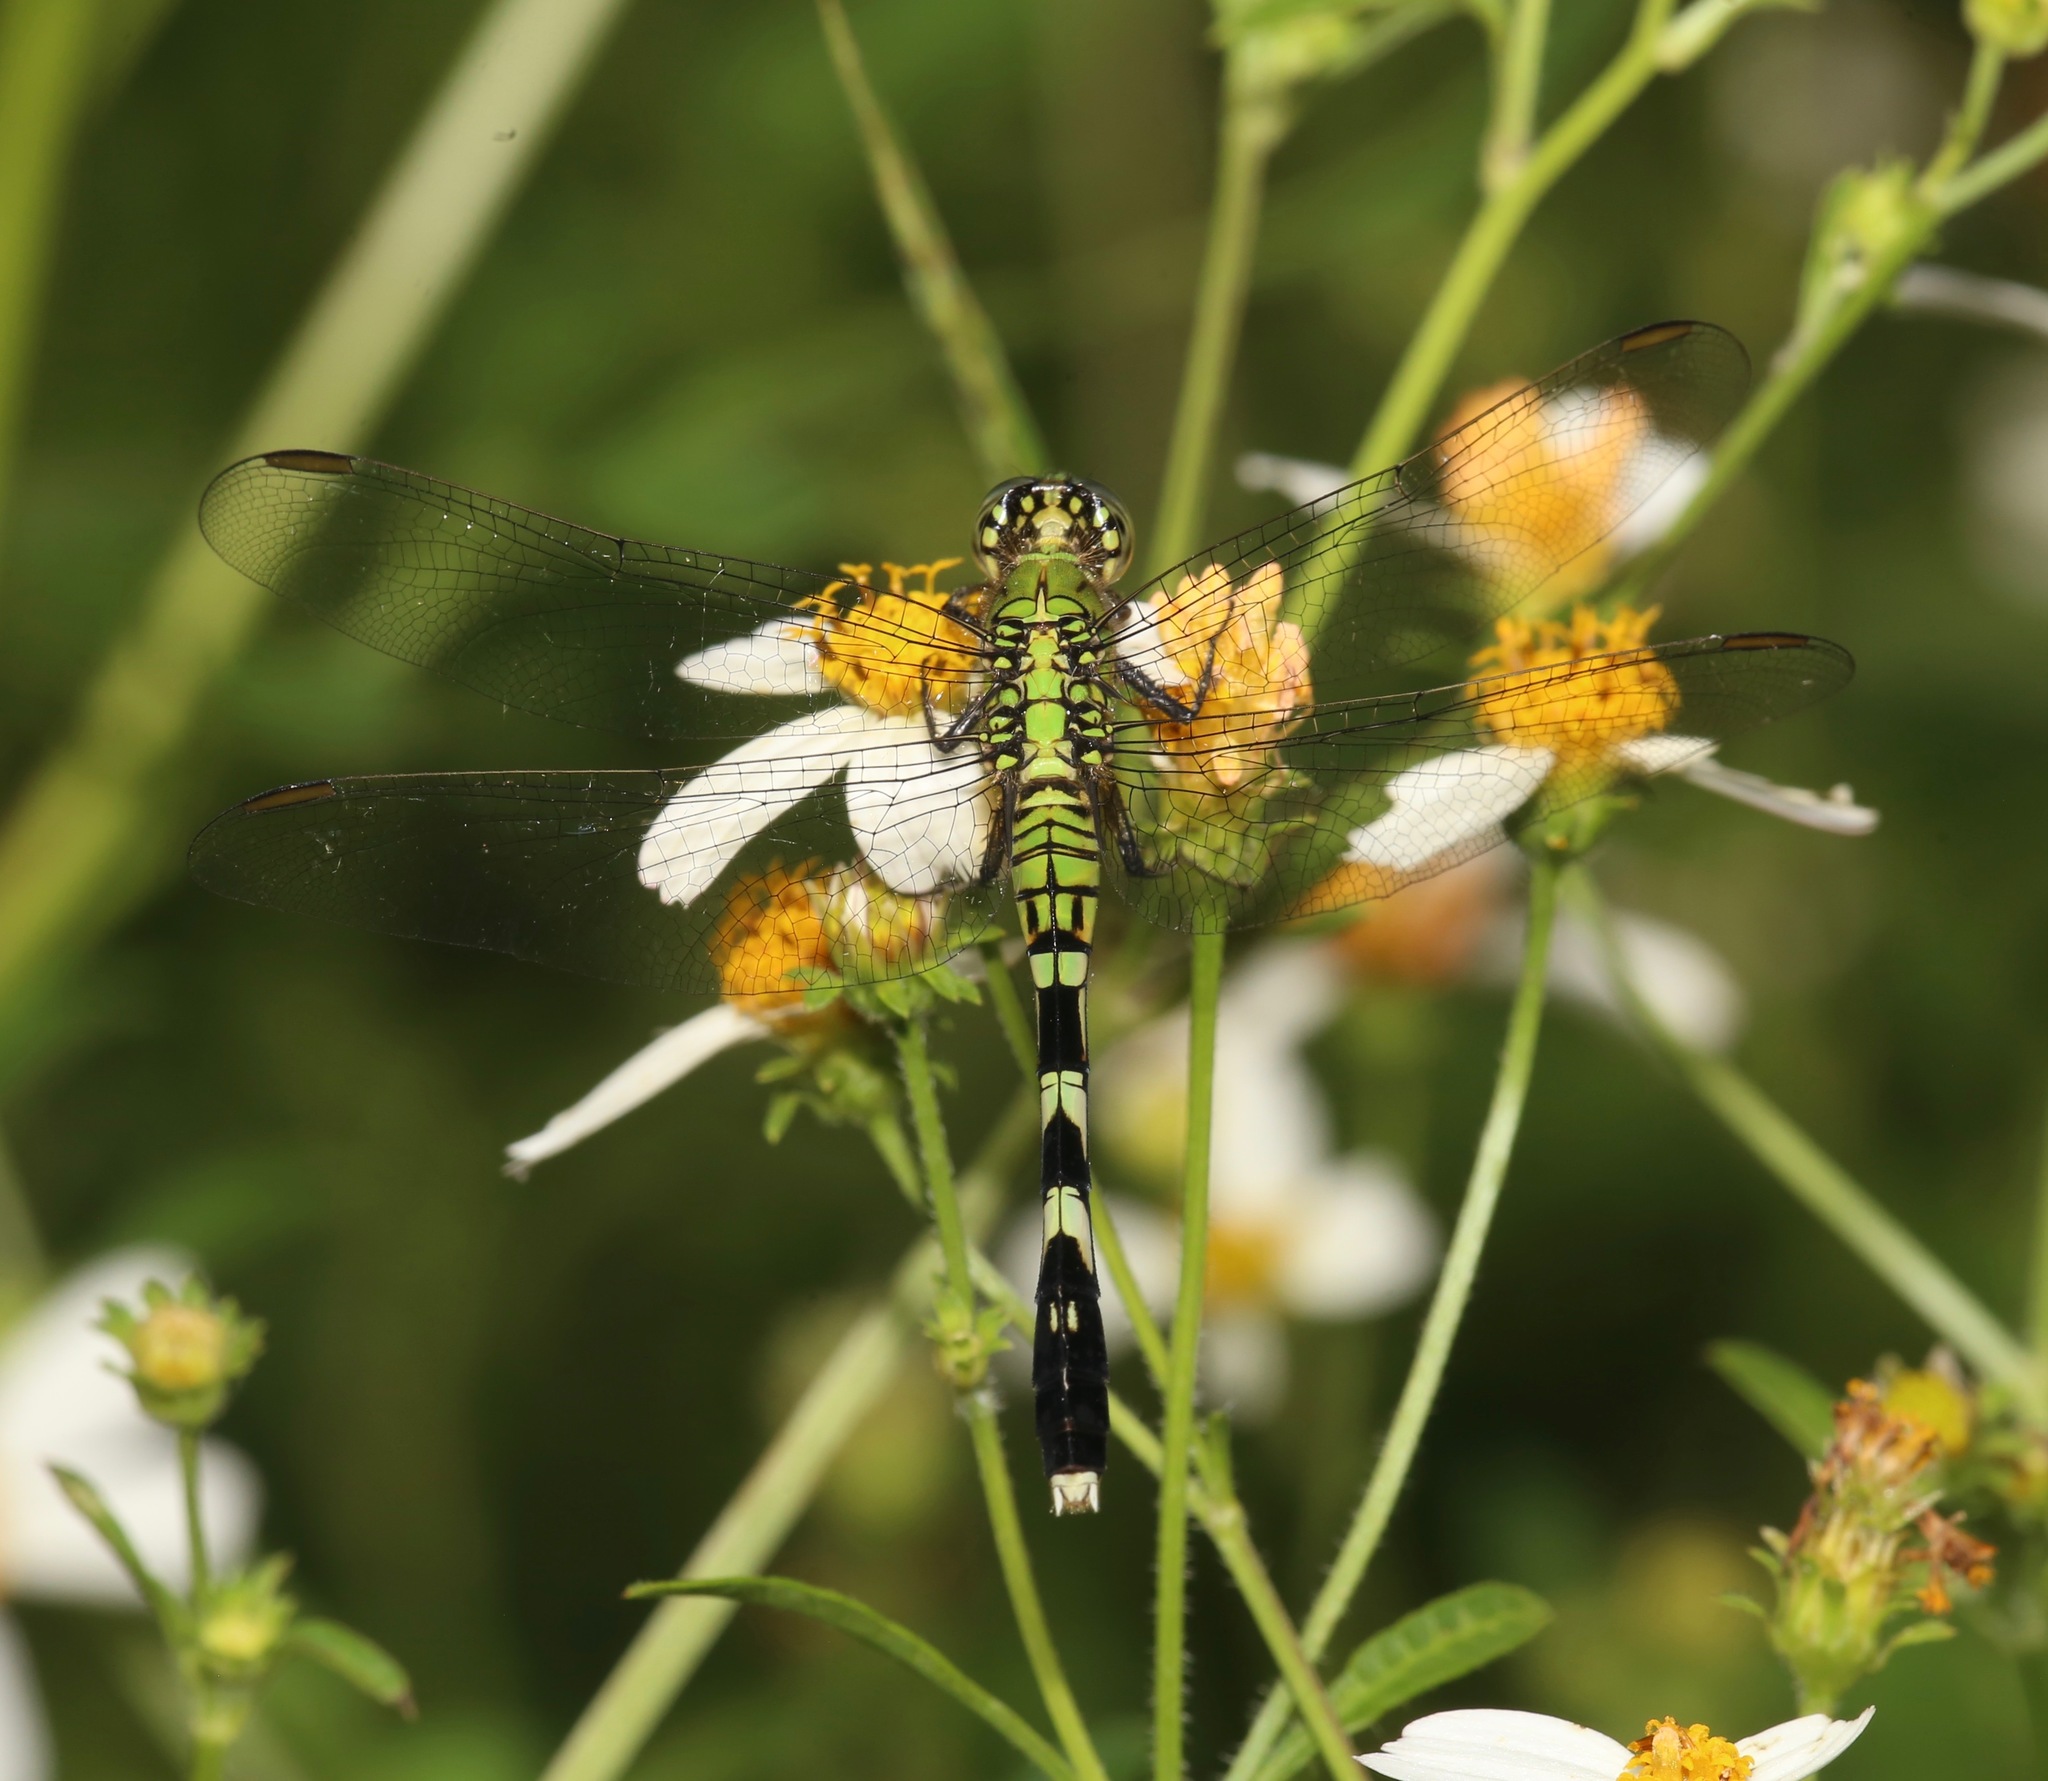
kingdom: Animalia
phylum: Arthropoda
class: Insecta
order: Odonata
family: Libellulidae
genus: Erythemis
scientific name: Erythemis simplicicollis
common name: Eastern pondhawk
